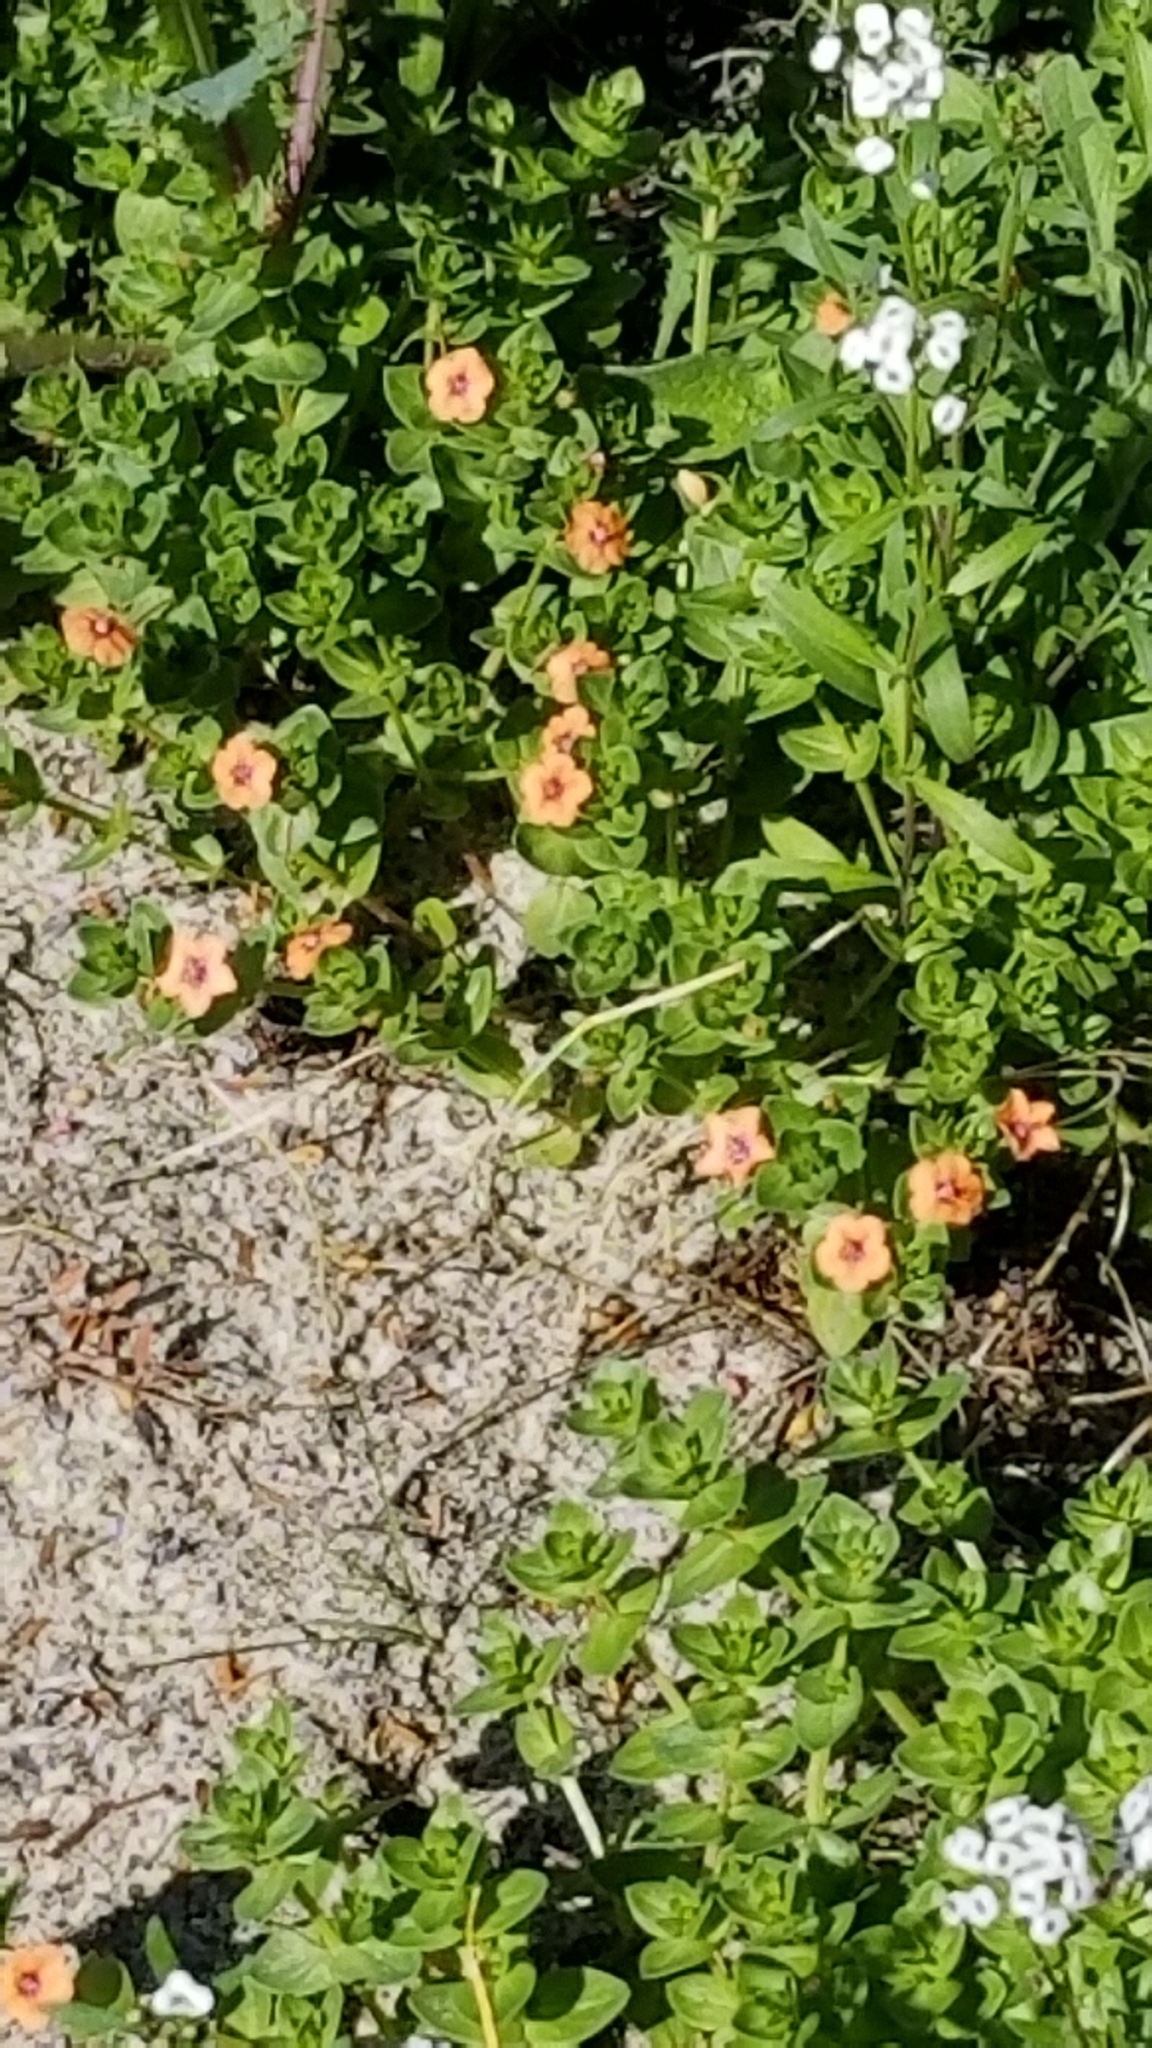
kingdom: Plantae
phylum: Tracheophyta
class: Magnoliopsida
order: Ericales
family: Primulaceae
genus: Lysimachia
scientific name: Lysimachia arvensis
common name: Scarlet pimpernel
